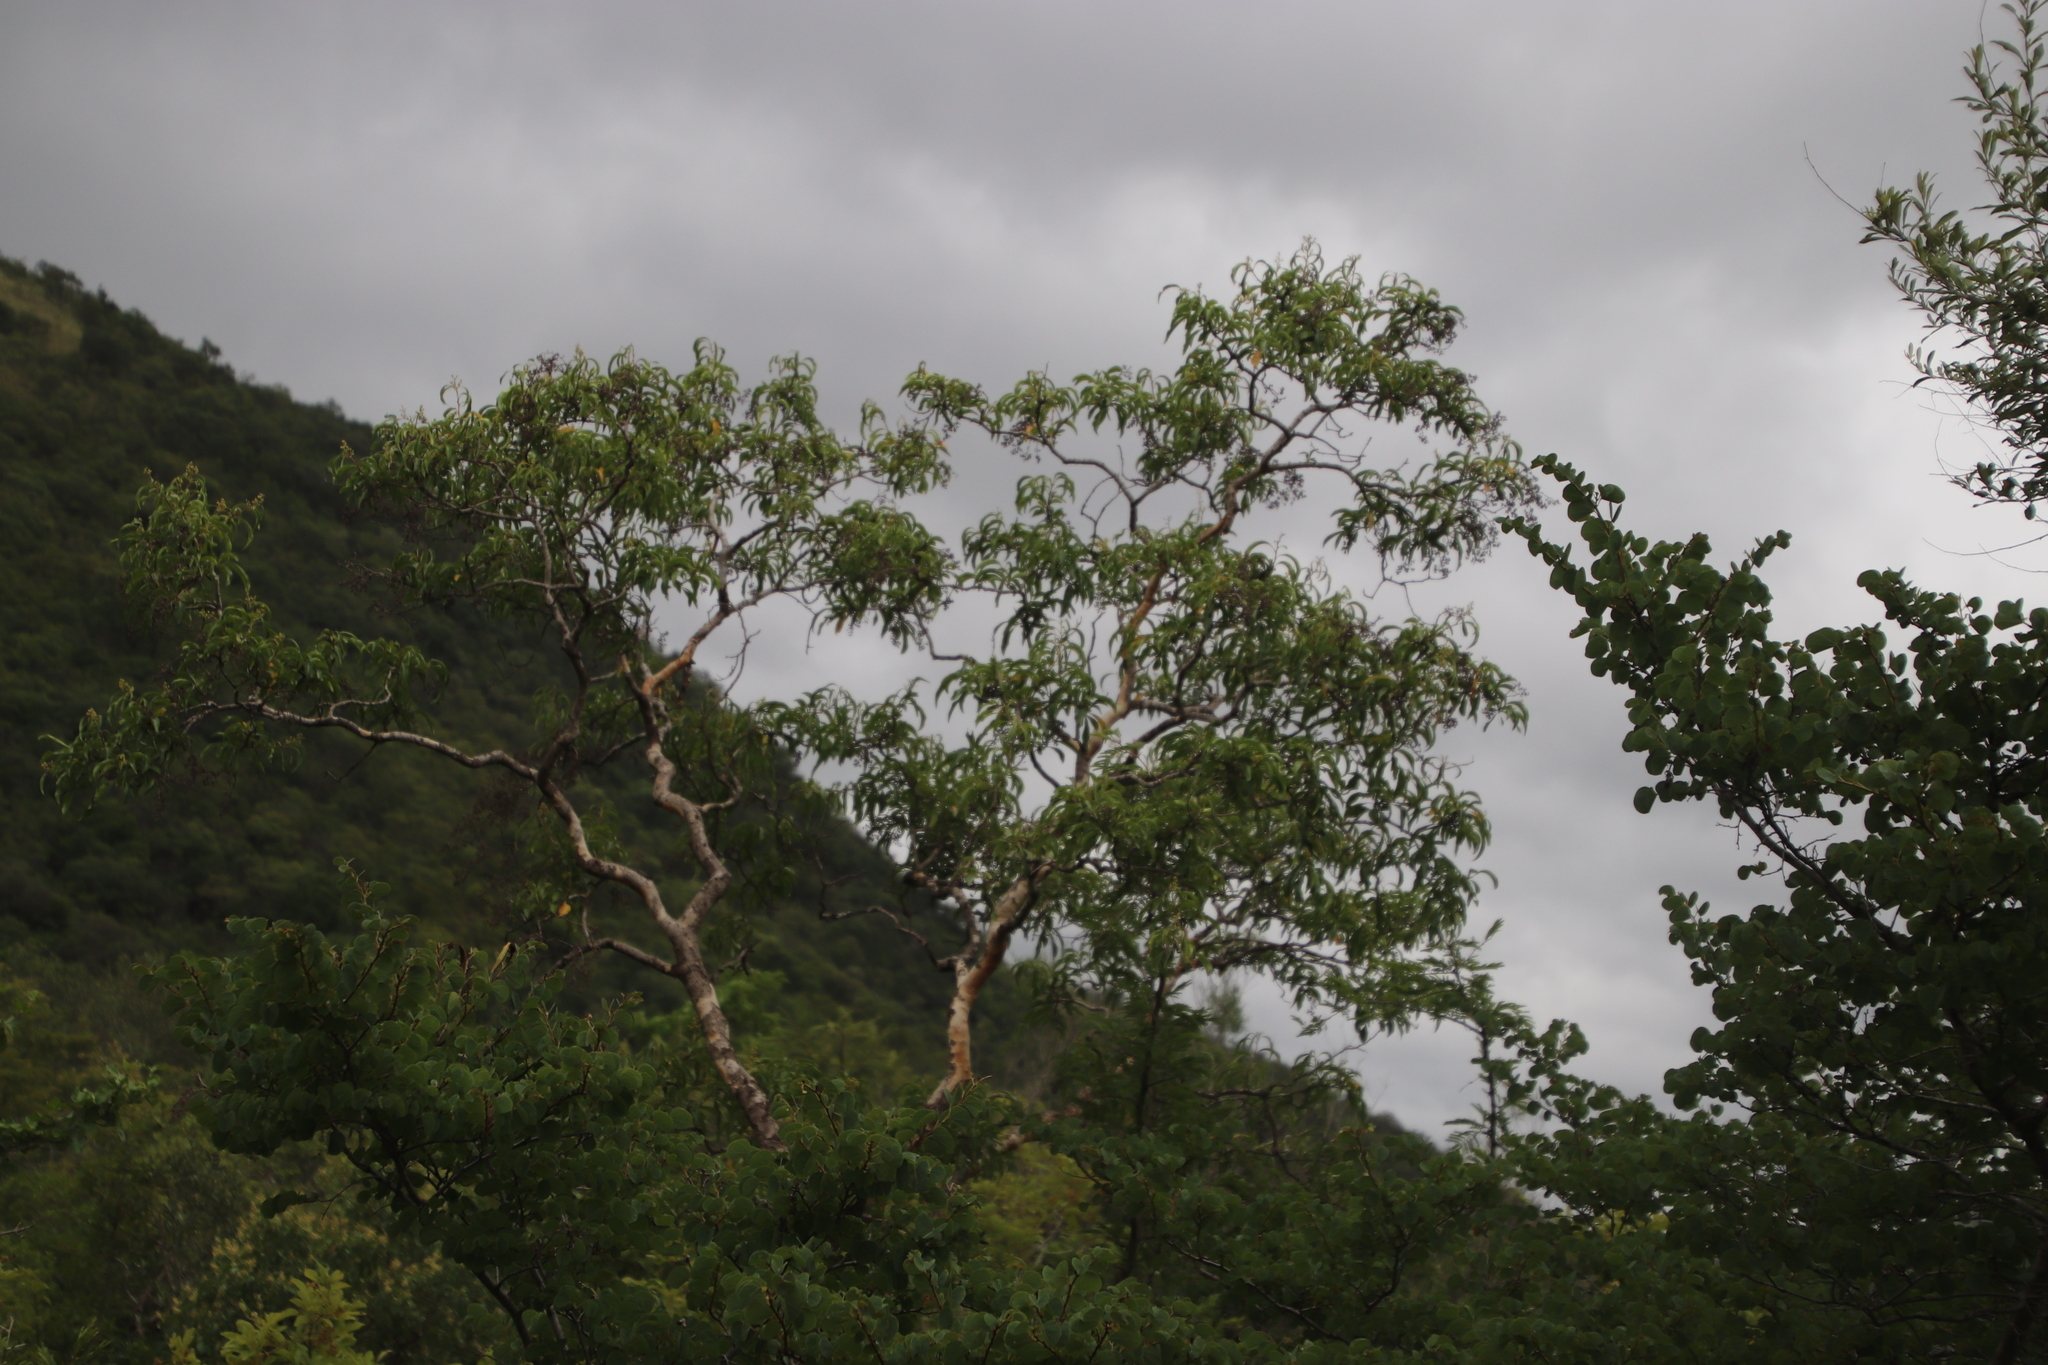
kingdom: Plantae
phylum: Tracheophyta
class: Magnoliopsida
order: Myrtales
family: Myrtaceae
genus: Heteropyxis
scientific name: Heteropyxis natalensis
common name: Lavender tree
